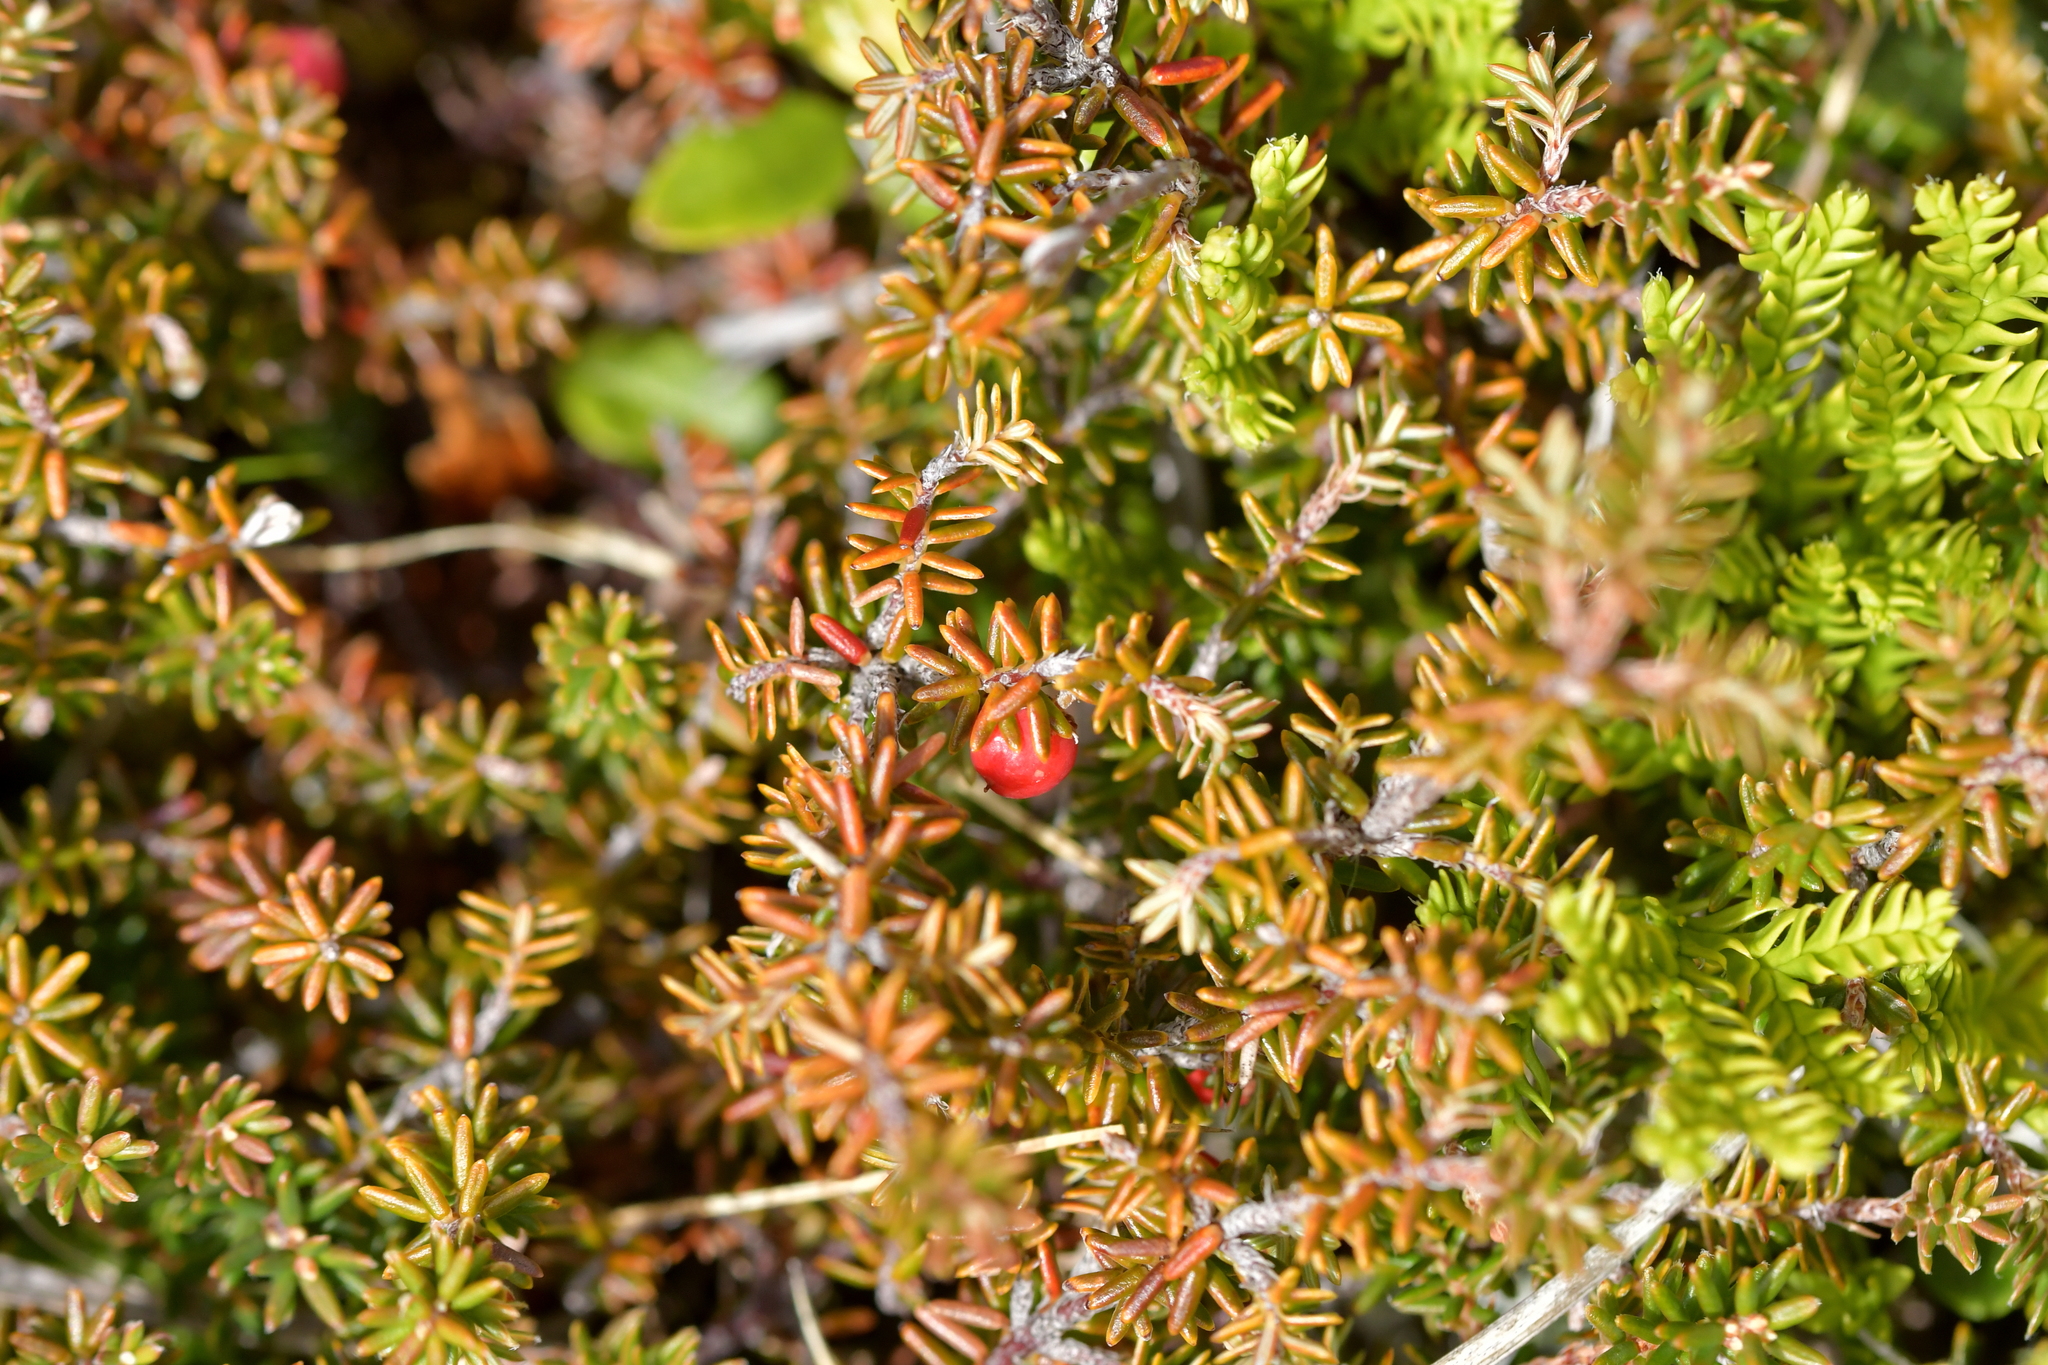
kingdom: Plantae
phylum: Tracheophyta
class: Magnoliopsida
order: Ericales
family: Ericaceae
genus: Androstoma
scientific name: Androstoma empetrifolia
